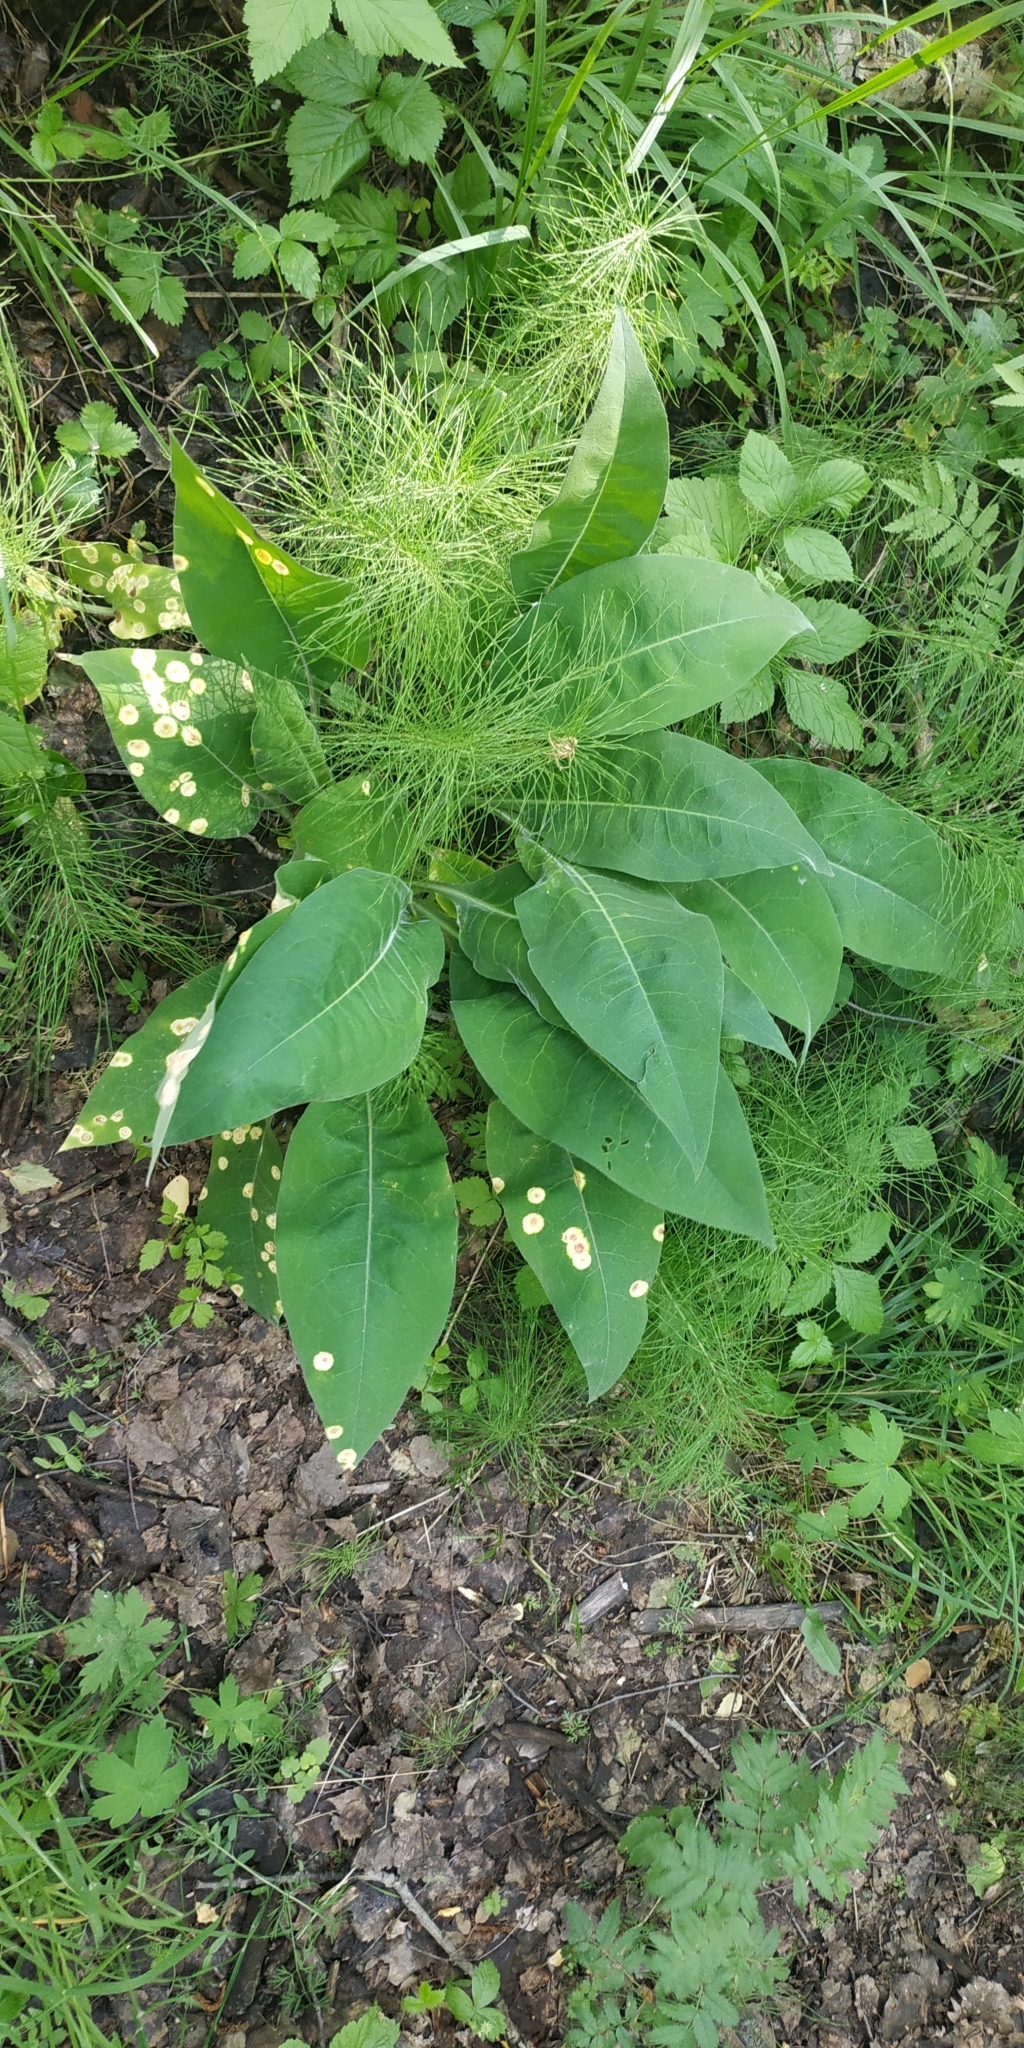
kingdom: Plantae
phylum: Tracheophyta
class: Magnoliopsida
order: Boraginales
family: Boraginaceae
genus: Pulmonaria
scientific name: Pulmonaria mollis
